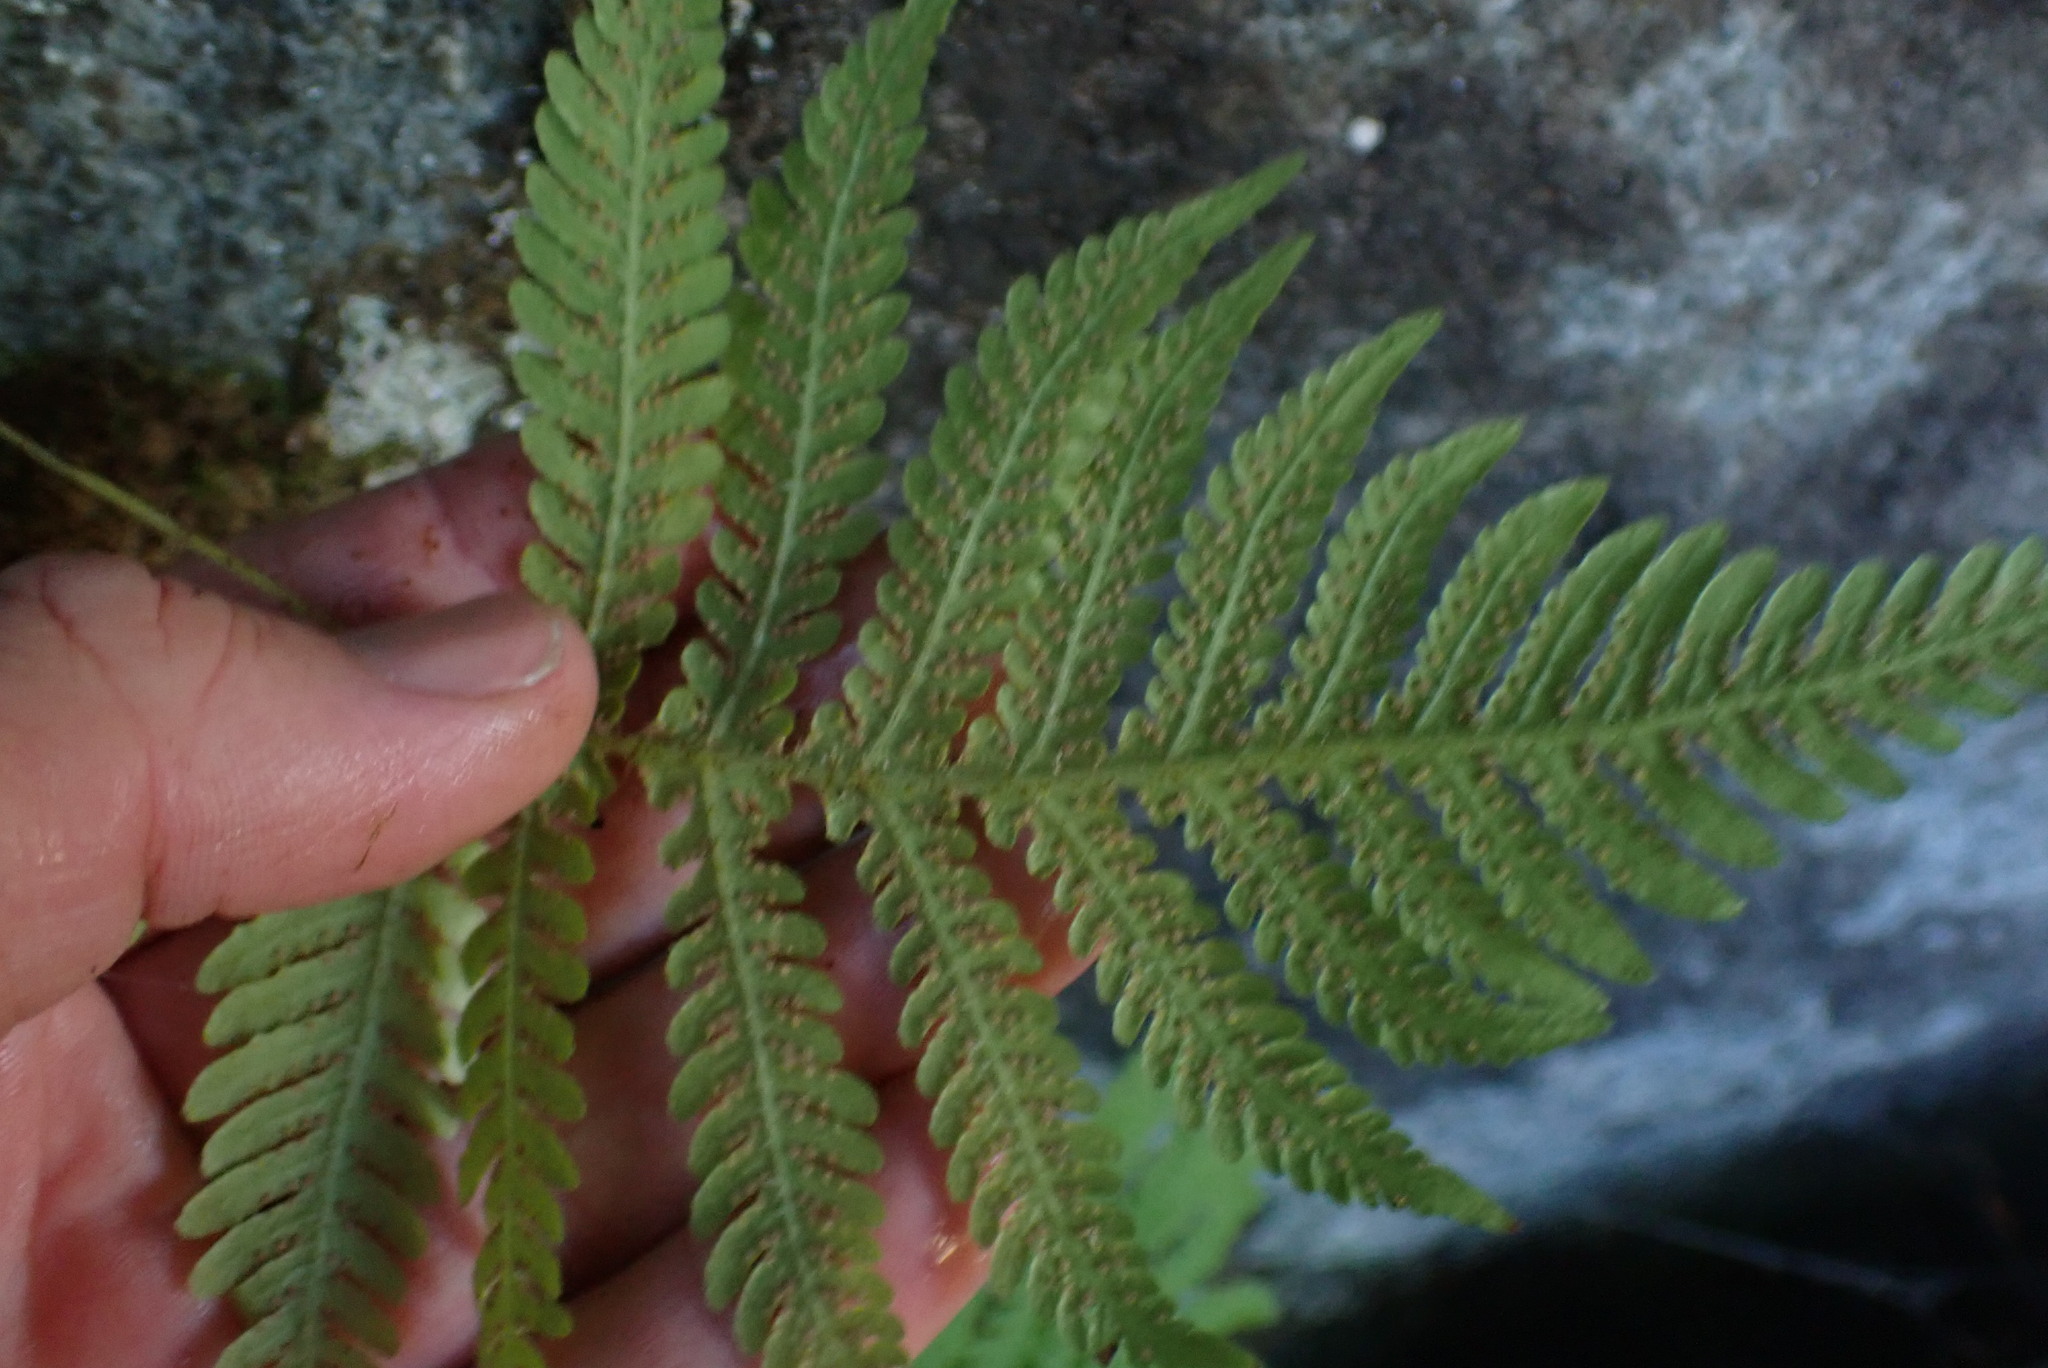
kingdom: Plantae
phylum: Tracheophyta
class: Polypodiopsida
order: Polypodiales
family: Thelypteridaceae
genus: Phegopteris
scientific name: Phegopteris connectilis
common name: Beech fern
